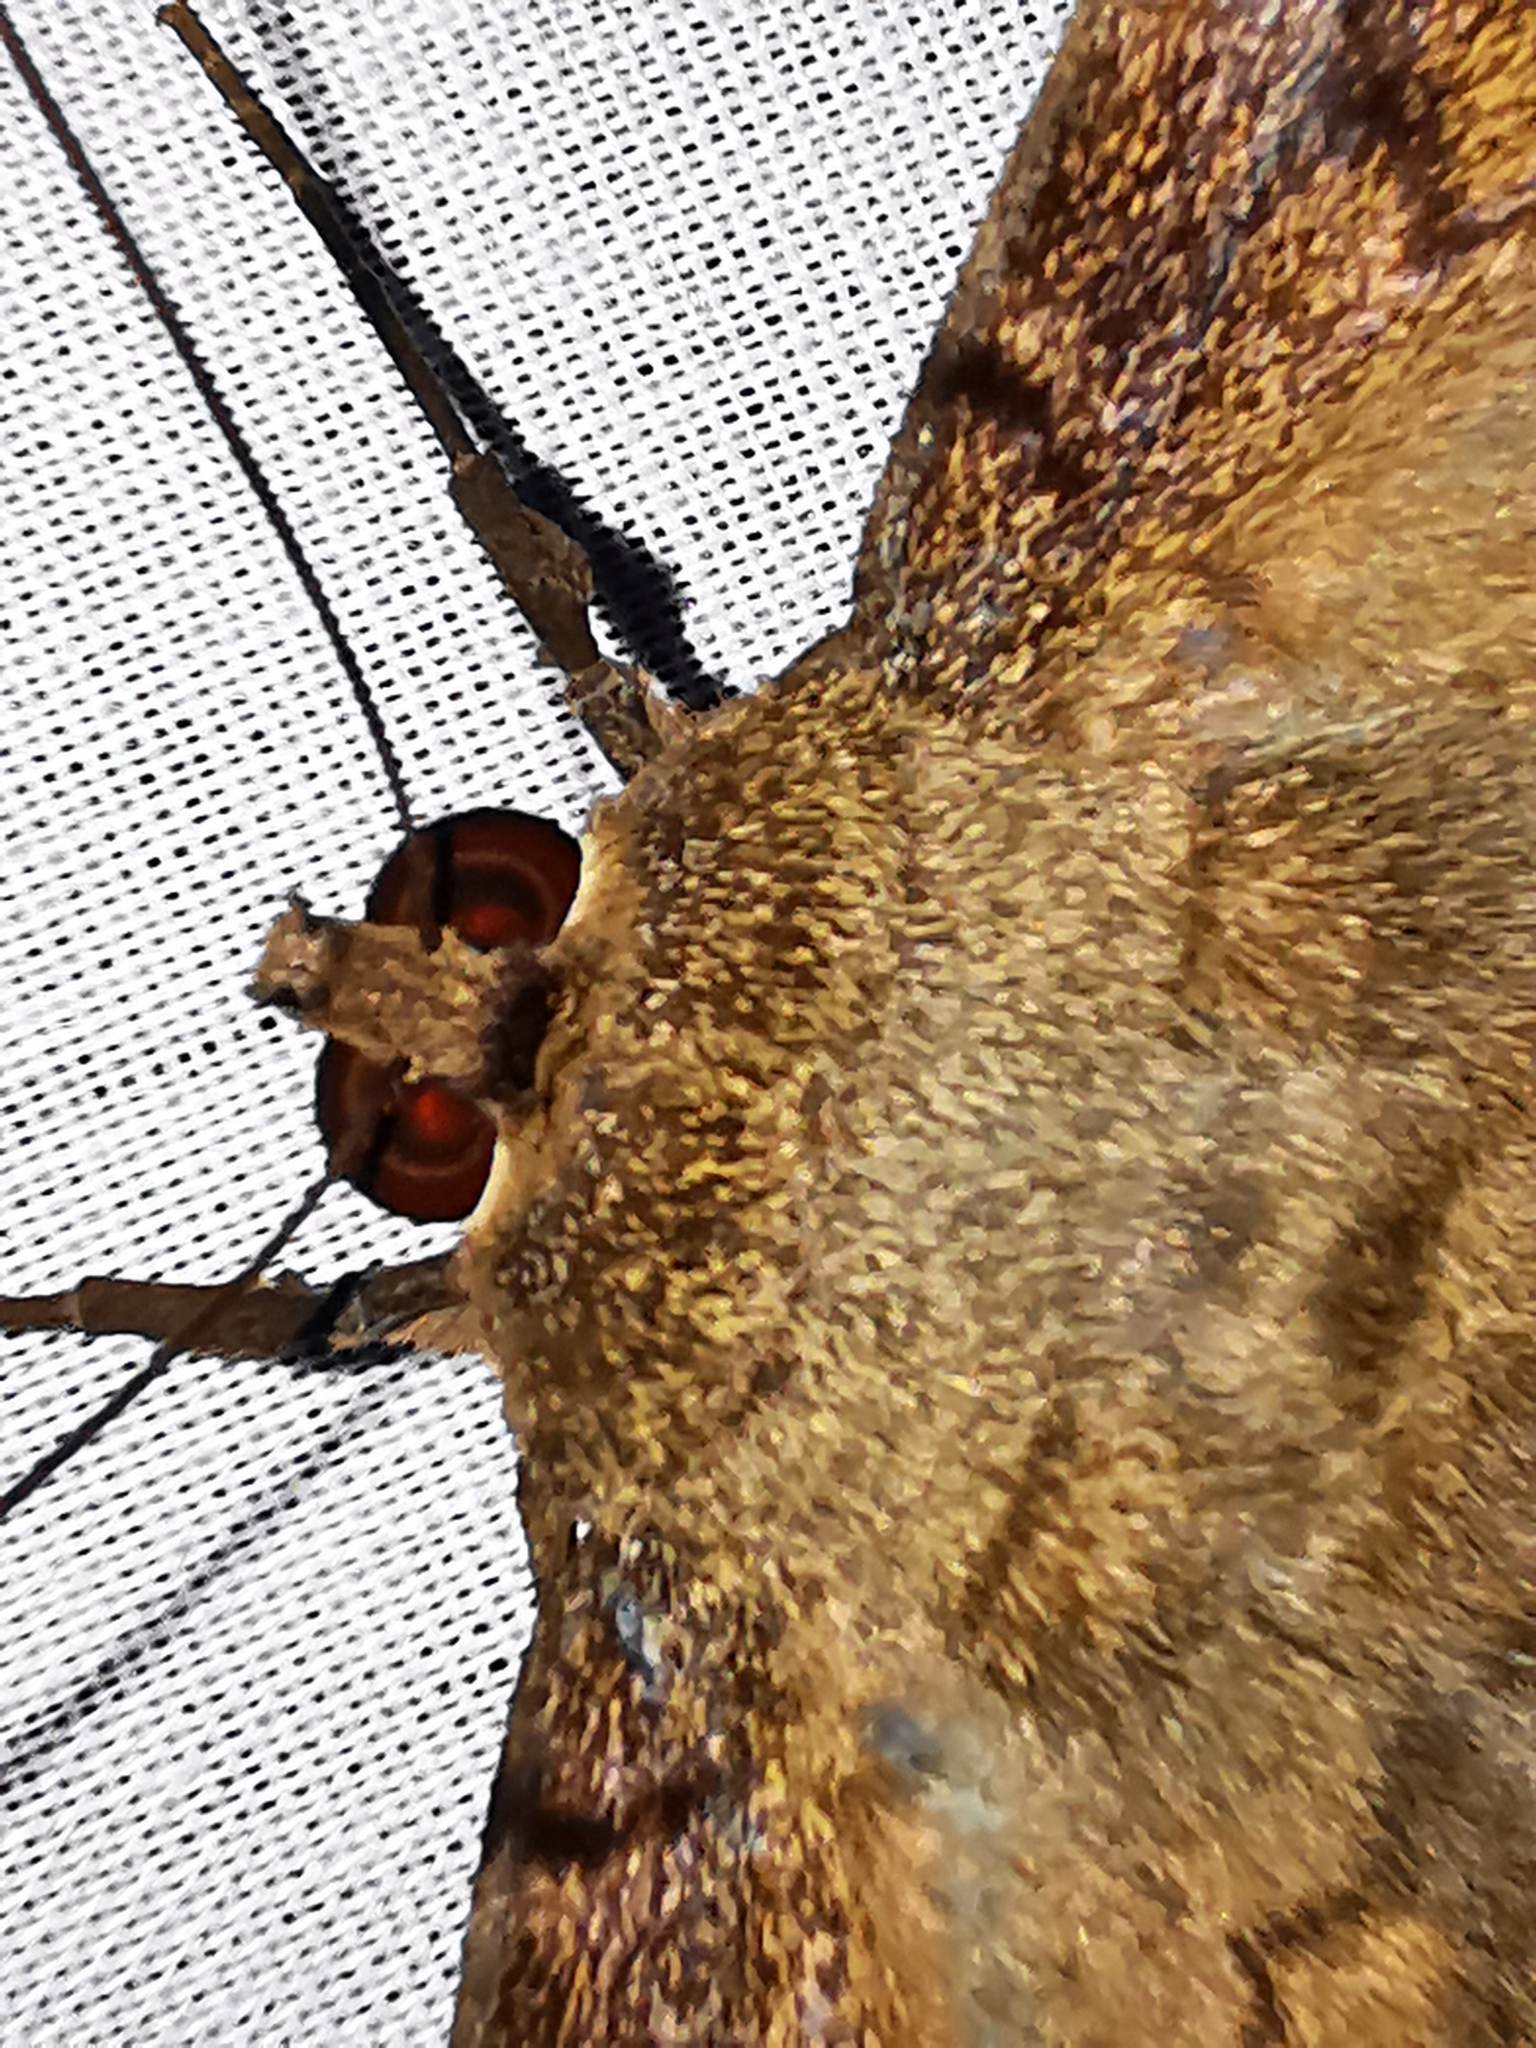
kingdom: Animalia
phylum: Arthropoda
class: Insecta
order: Lepidoptera
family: Erebidae
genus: Ascalapha
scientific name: Ascalapha odorata
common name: Black witch
